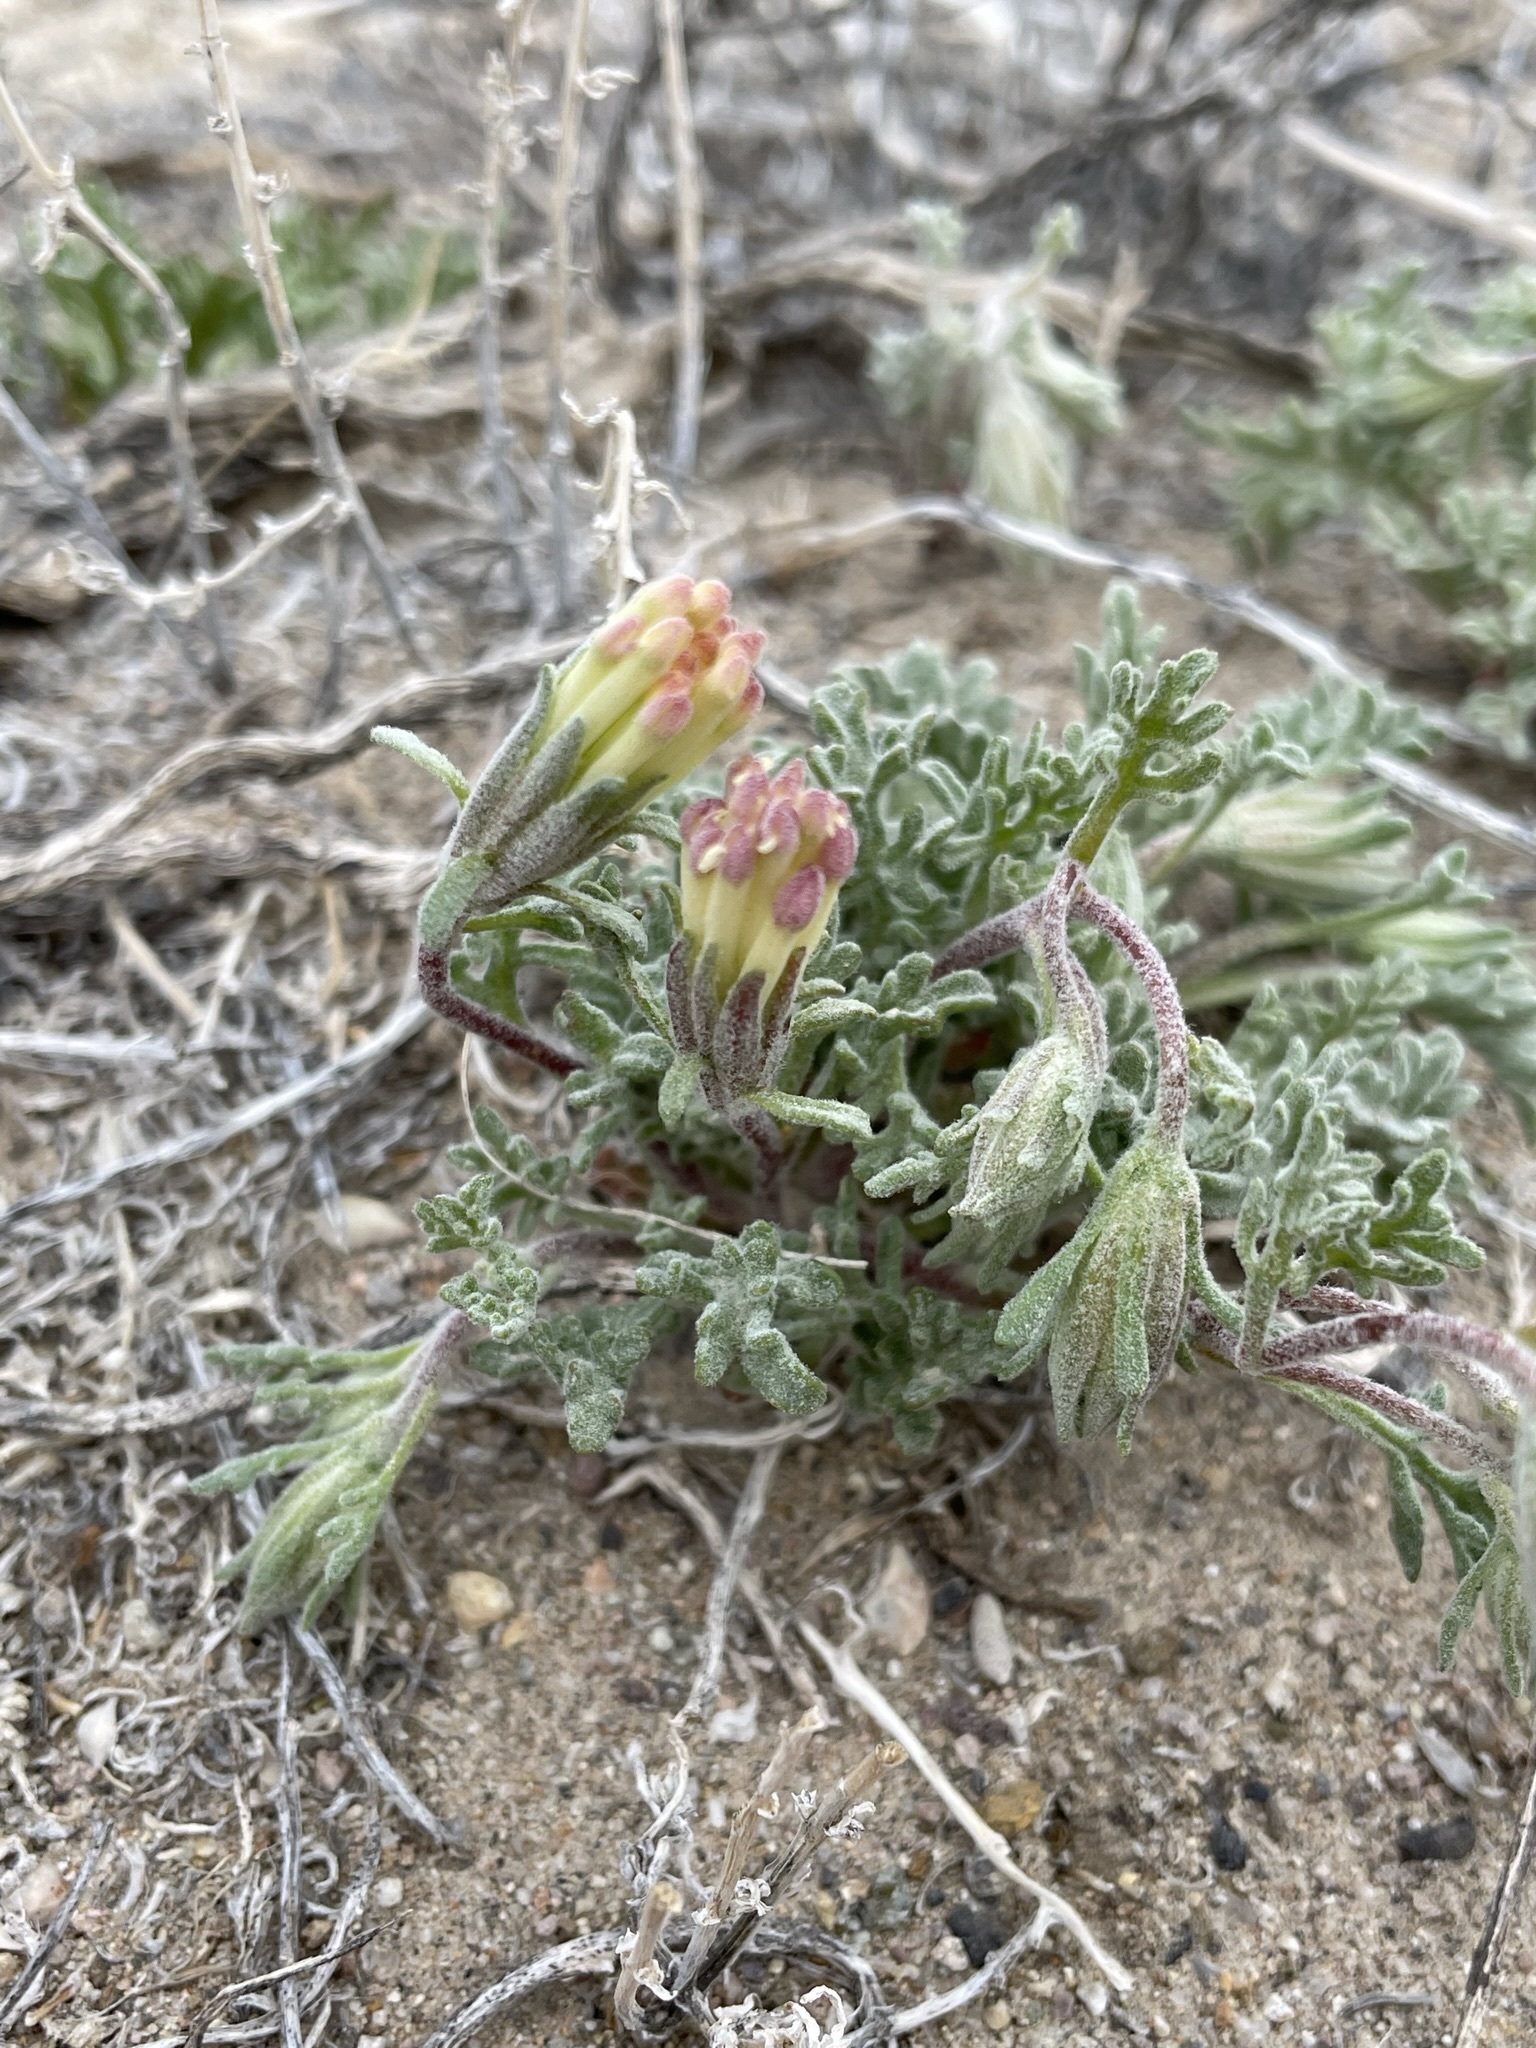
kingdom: Plantae
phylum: Tracheophyta
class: Magnoliopsida
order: Asterales
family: Asteraceae
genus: Chaenactis
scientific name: Chaenactis macrantha
